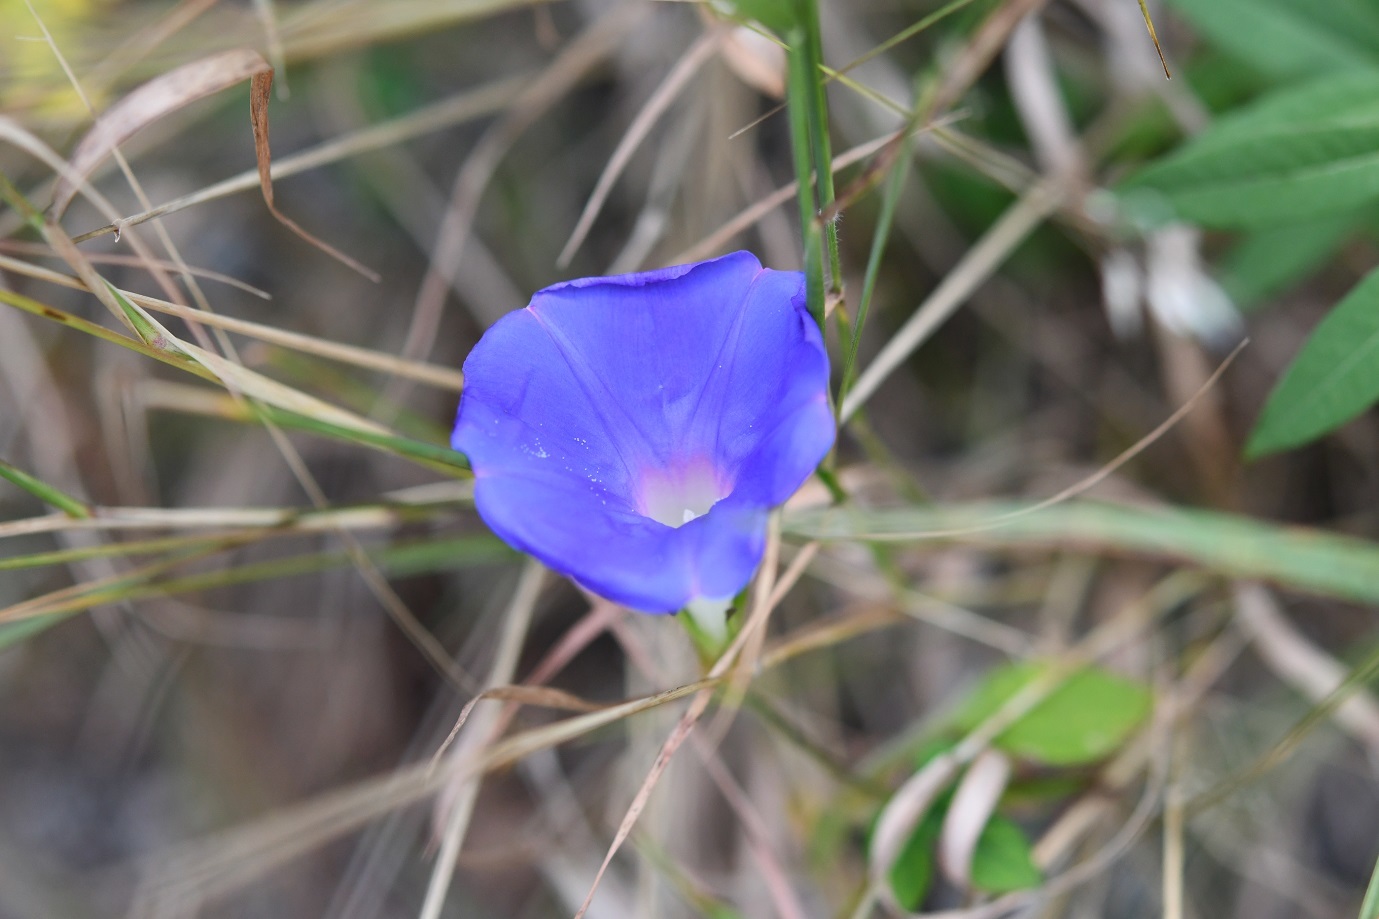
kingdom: Plantae
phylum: Tracheophyta
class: Magnoliopsida
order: Solanales
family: Convolvulaceae
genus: Ipomoea
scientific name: Ipomoea nil
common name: Japanese morning-glory
